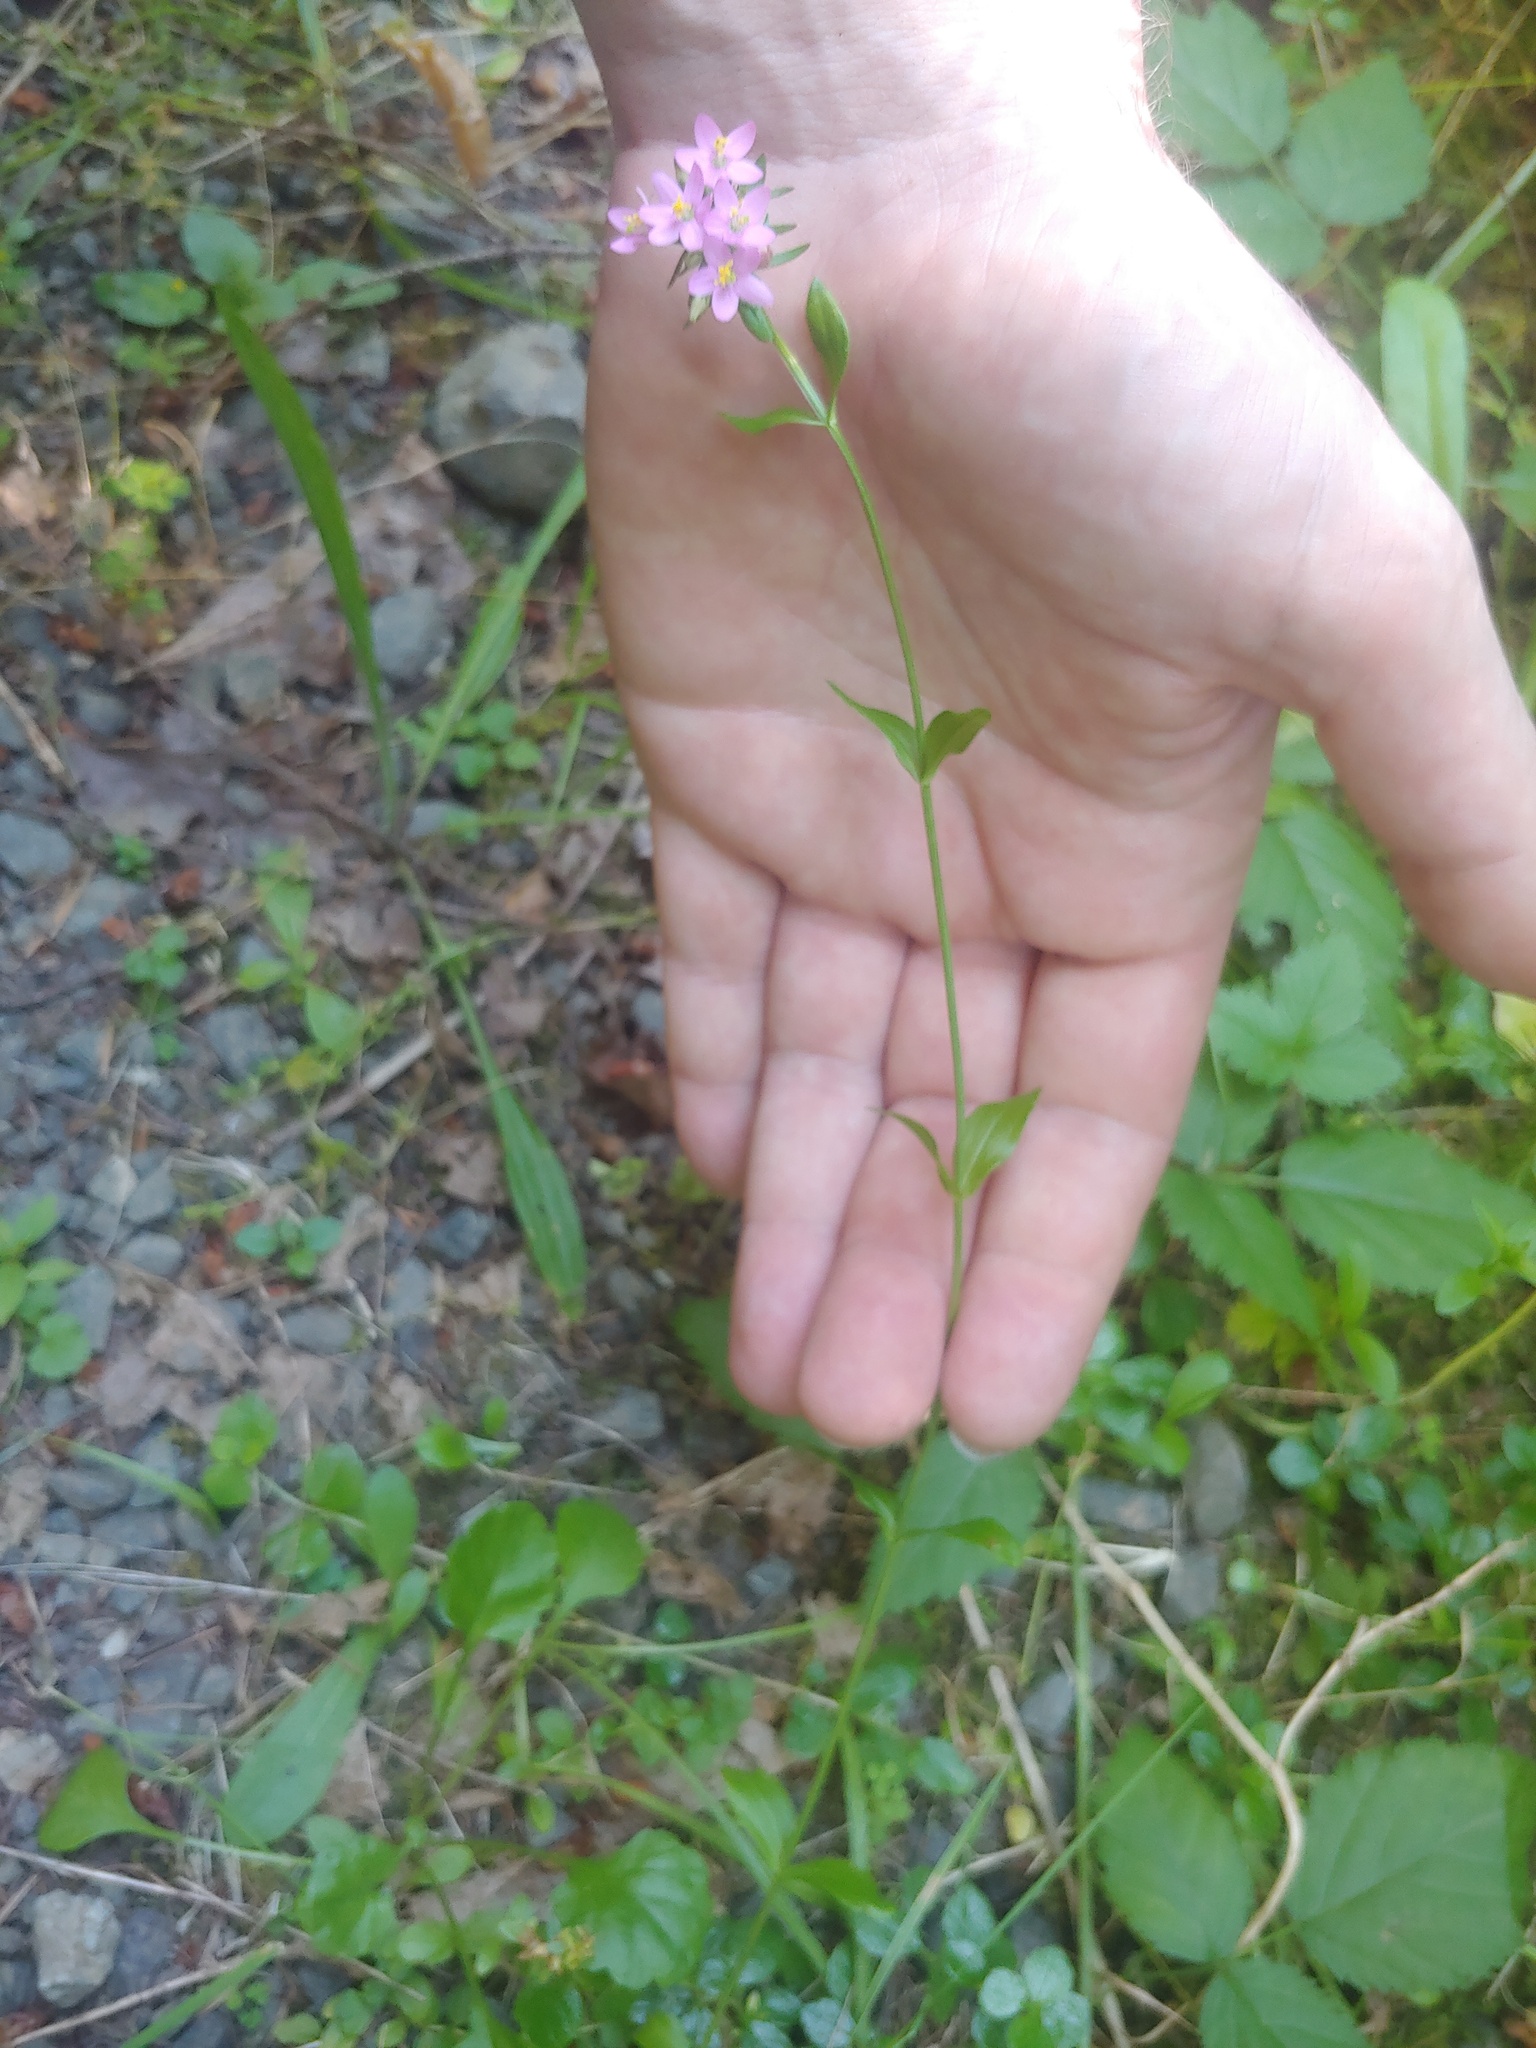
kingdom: Plantae
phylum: Tracheophyta
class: Magnoliopsida
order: Gentianales
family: Gentianaceae
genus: Centaurium
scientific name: Centaurium erythraea
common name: Common centaury
